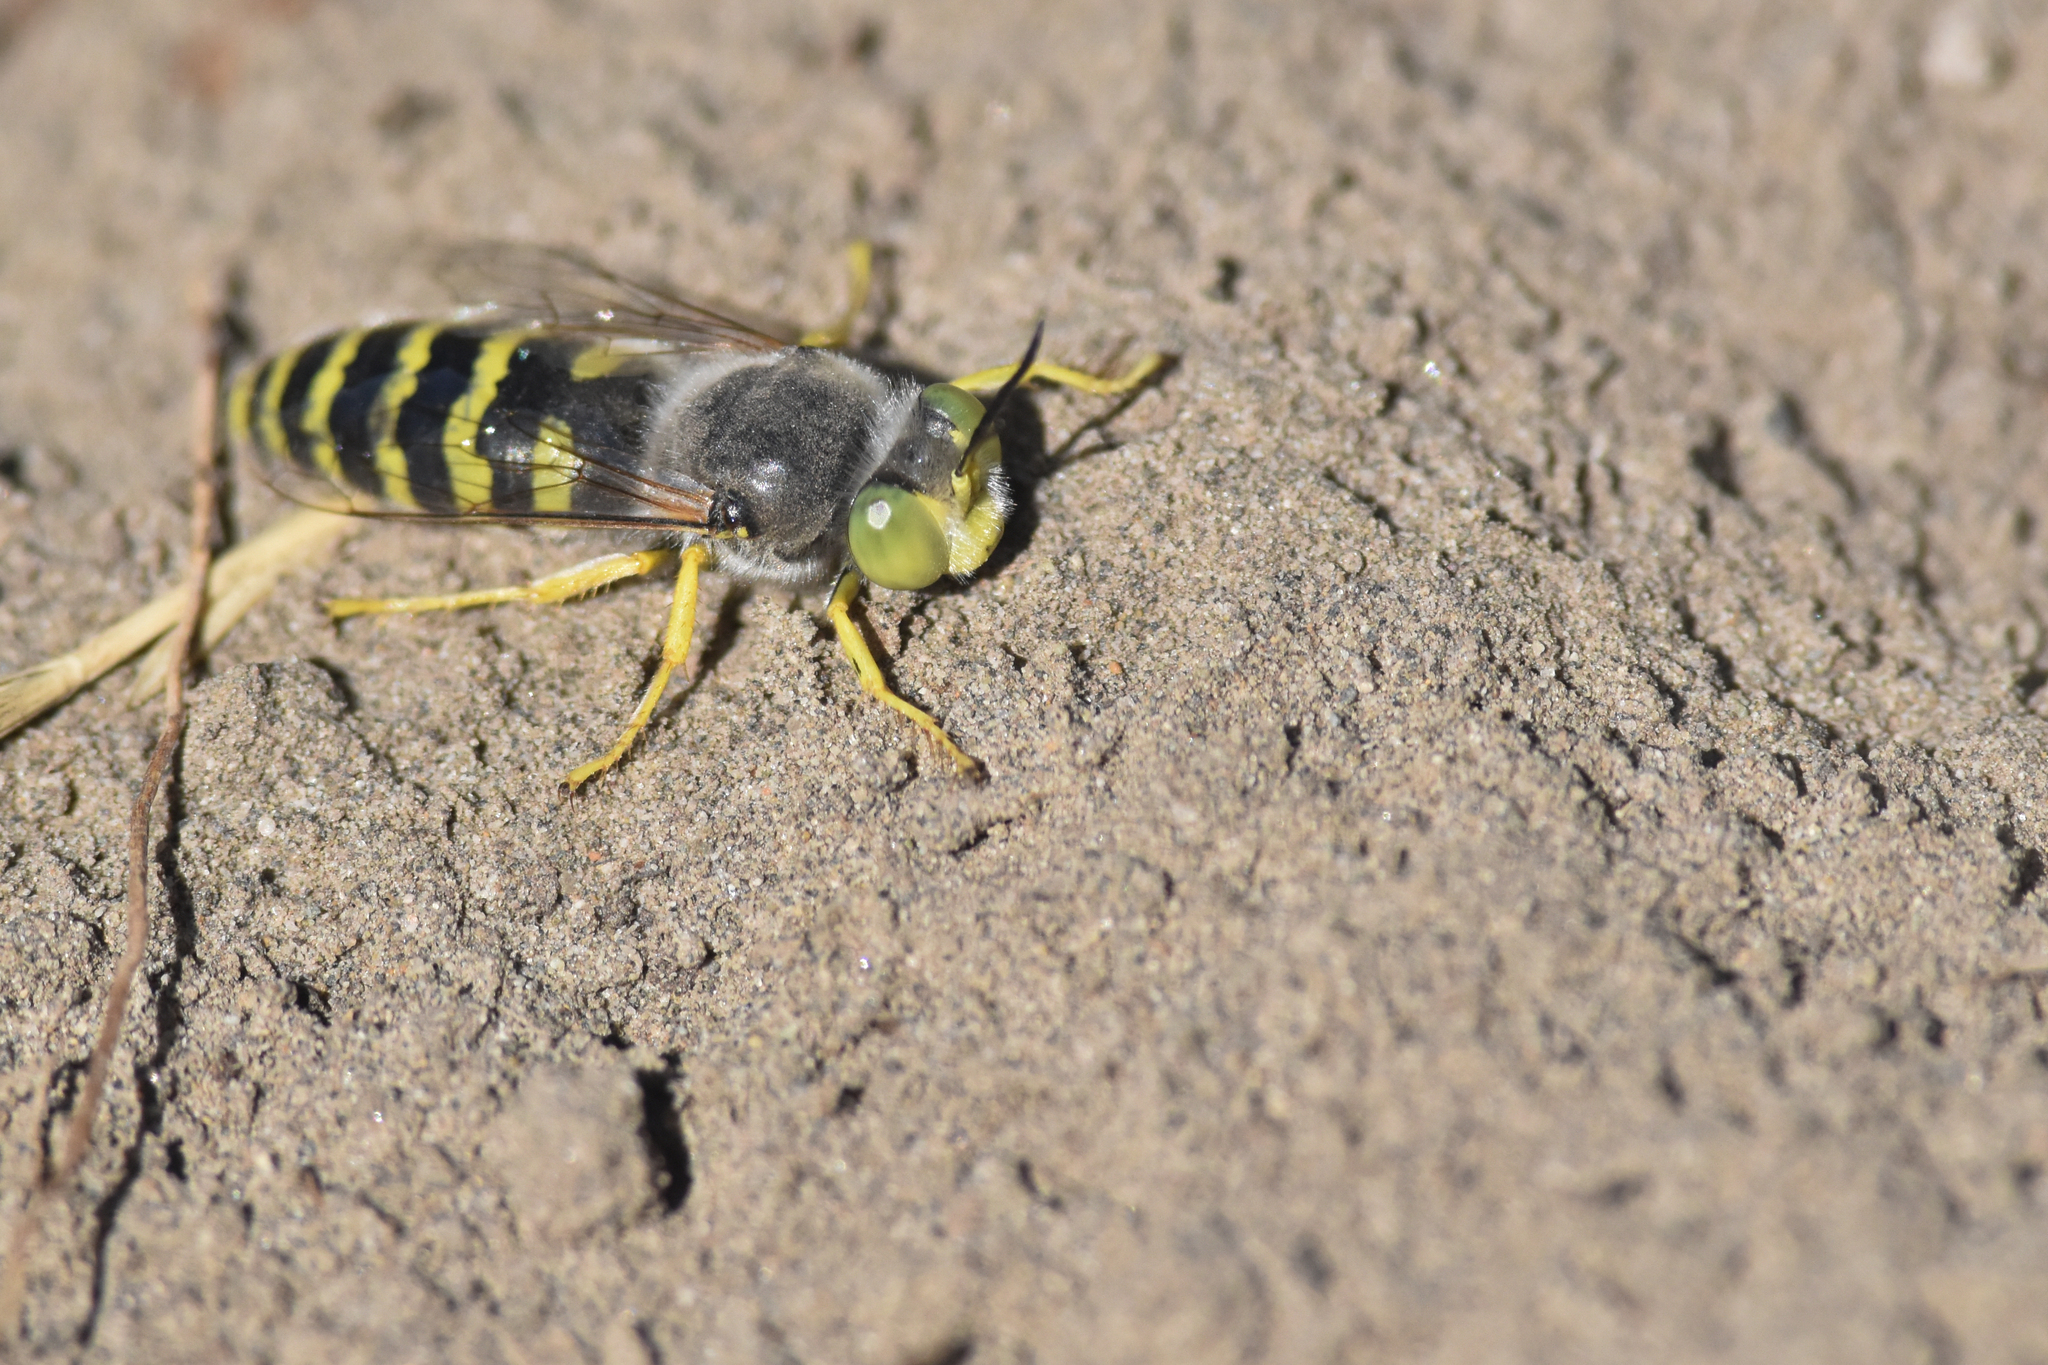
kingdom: Animalia
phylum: Arthropoda
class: Insecta
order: Hymenoptera
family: Crabronidae
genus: Bembix
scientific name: Bembix americana
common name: American sand wasp
